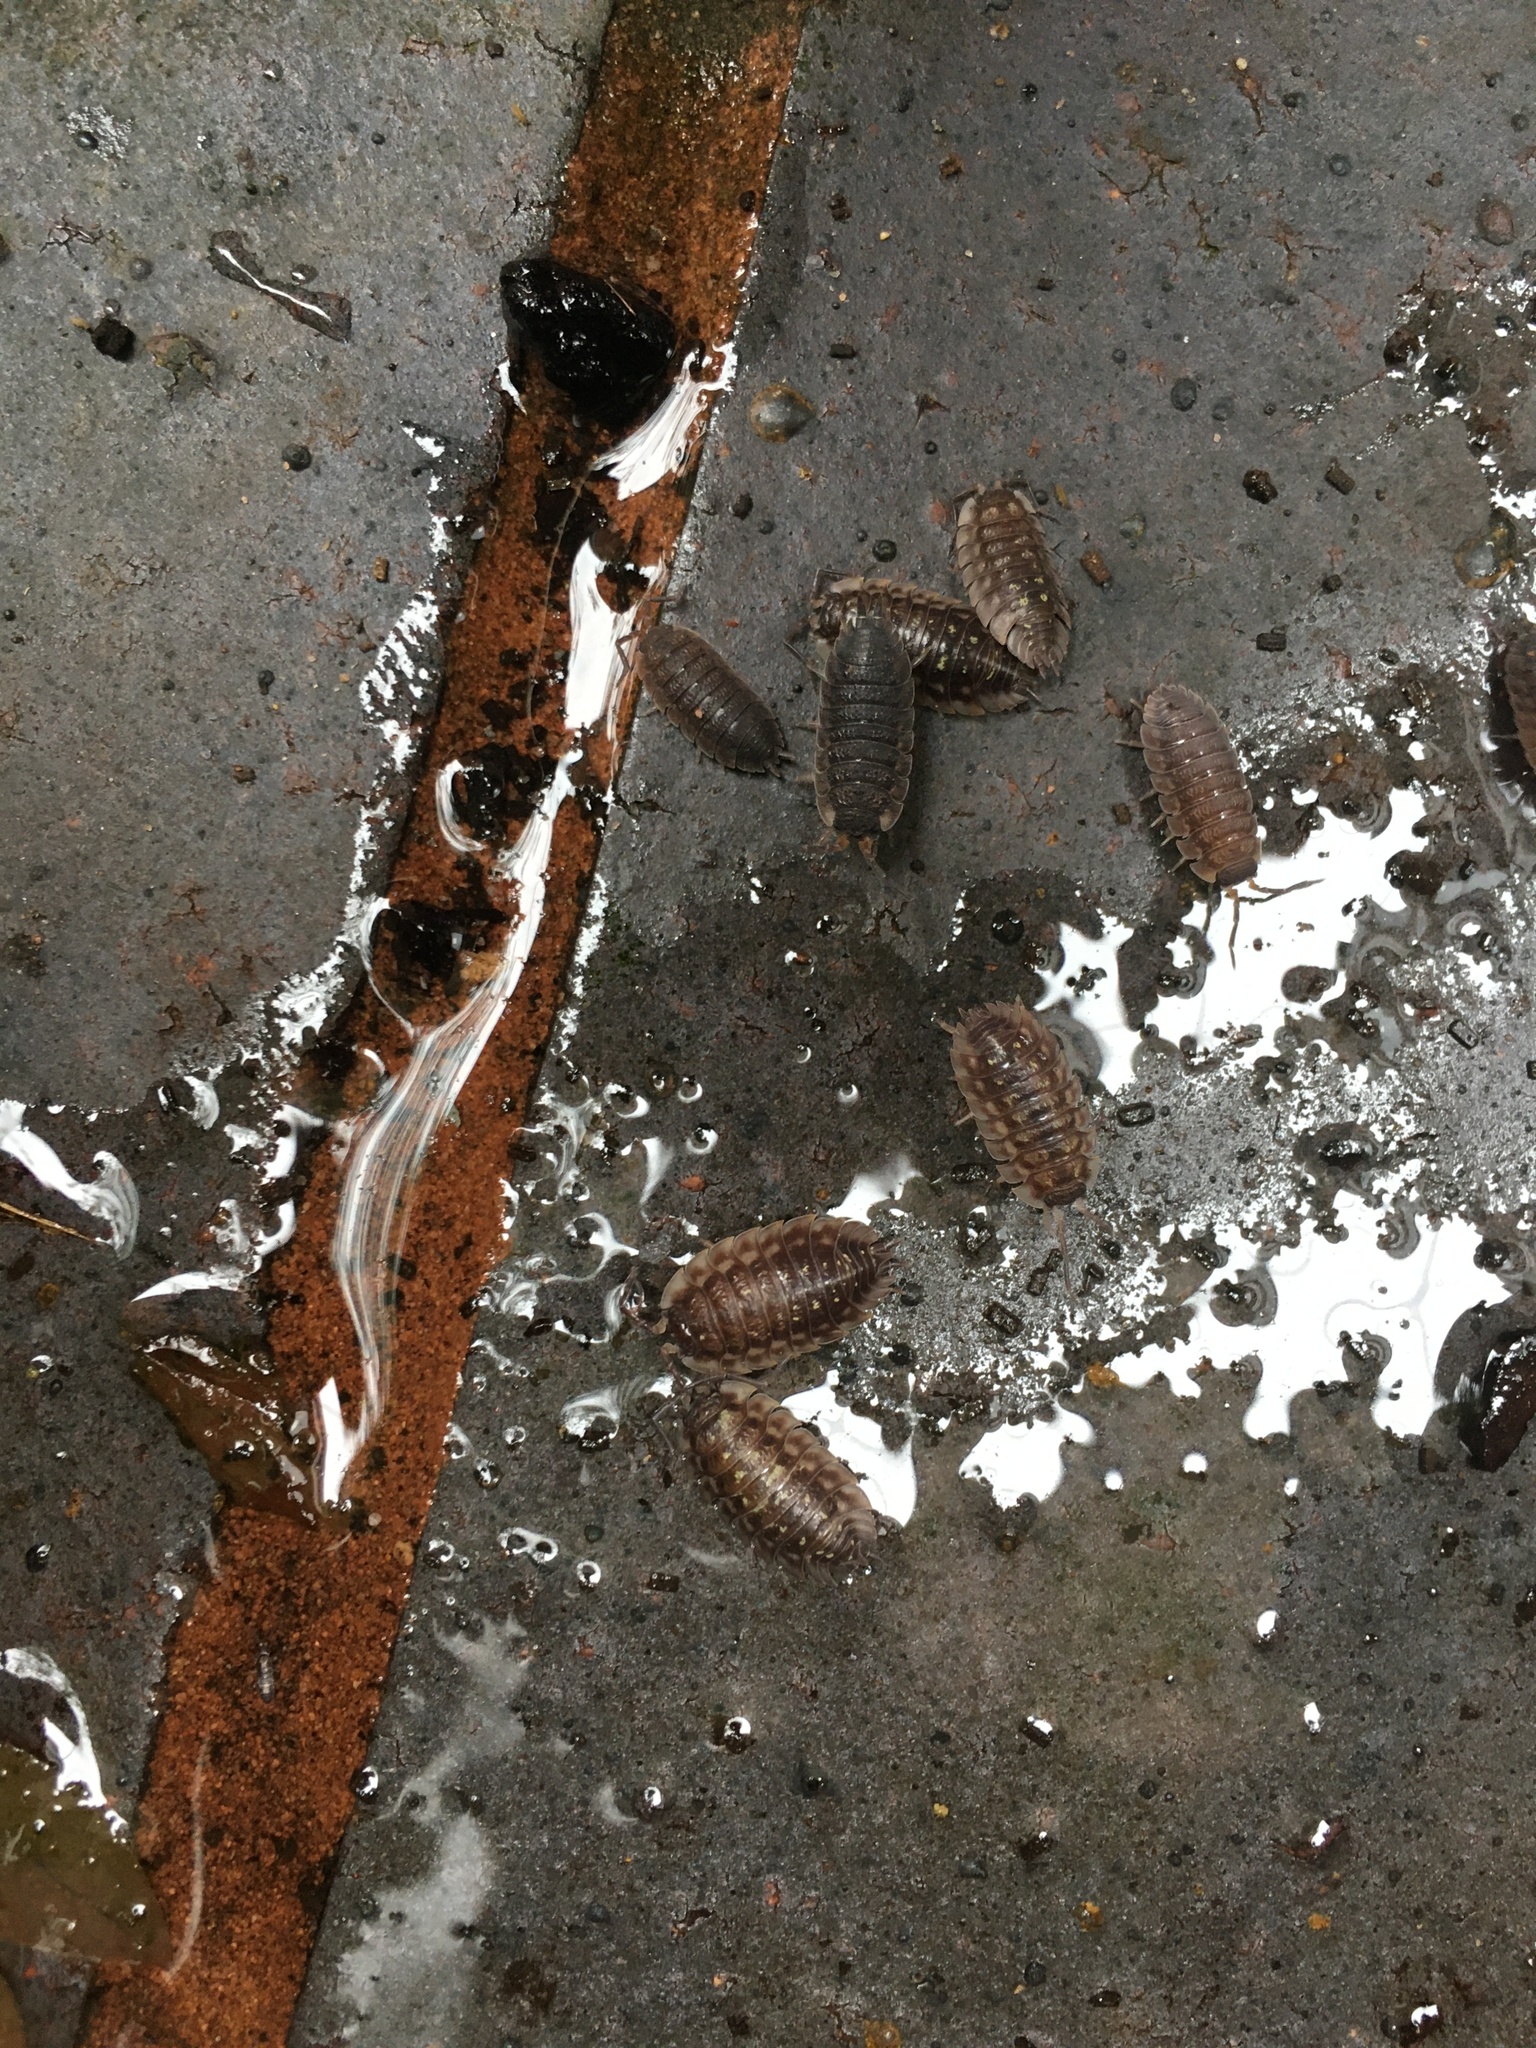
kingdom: Animalia
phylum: Arthropoda
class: Malacostraca
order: Isopoda
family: Oniscidae
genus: Oniscus
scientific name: Oniscus asellus
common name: Common shiny woodlouse
